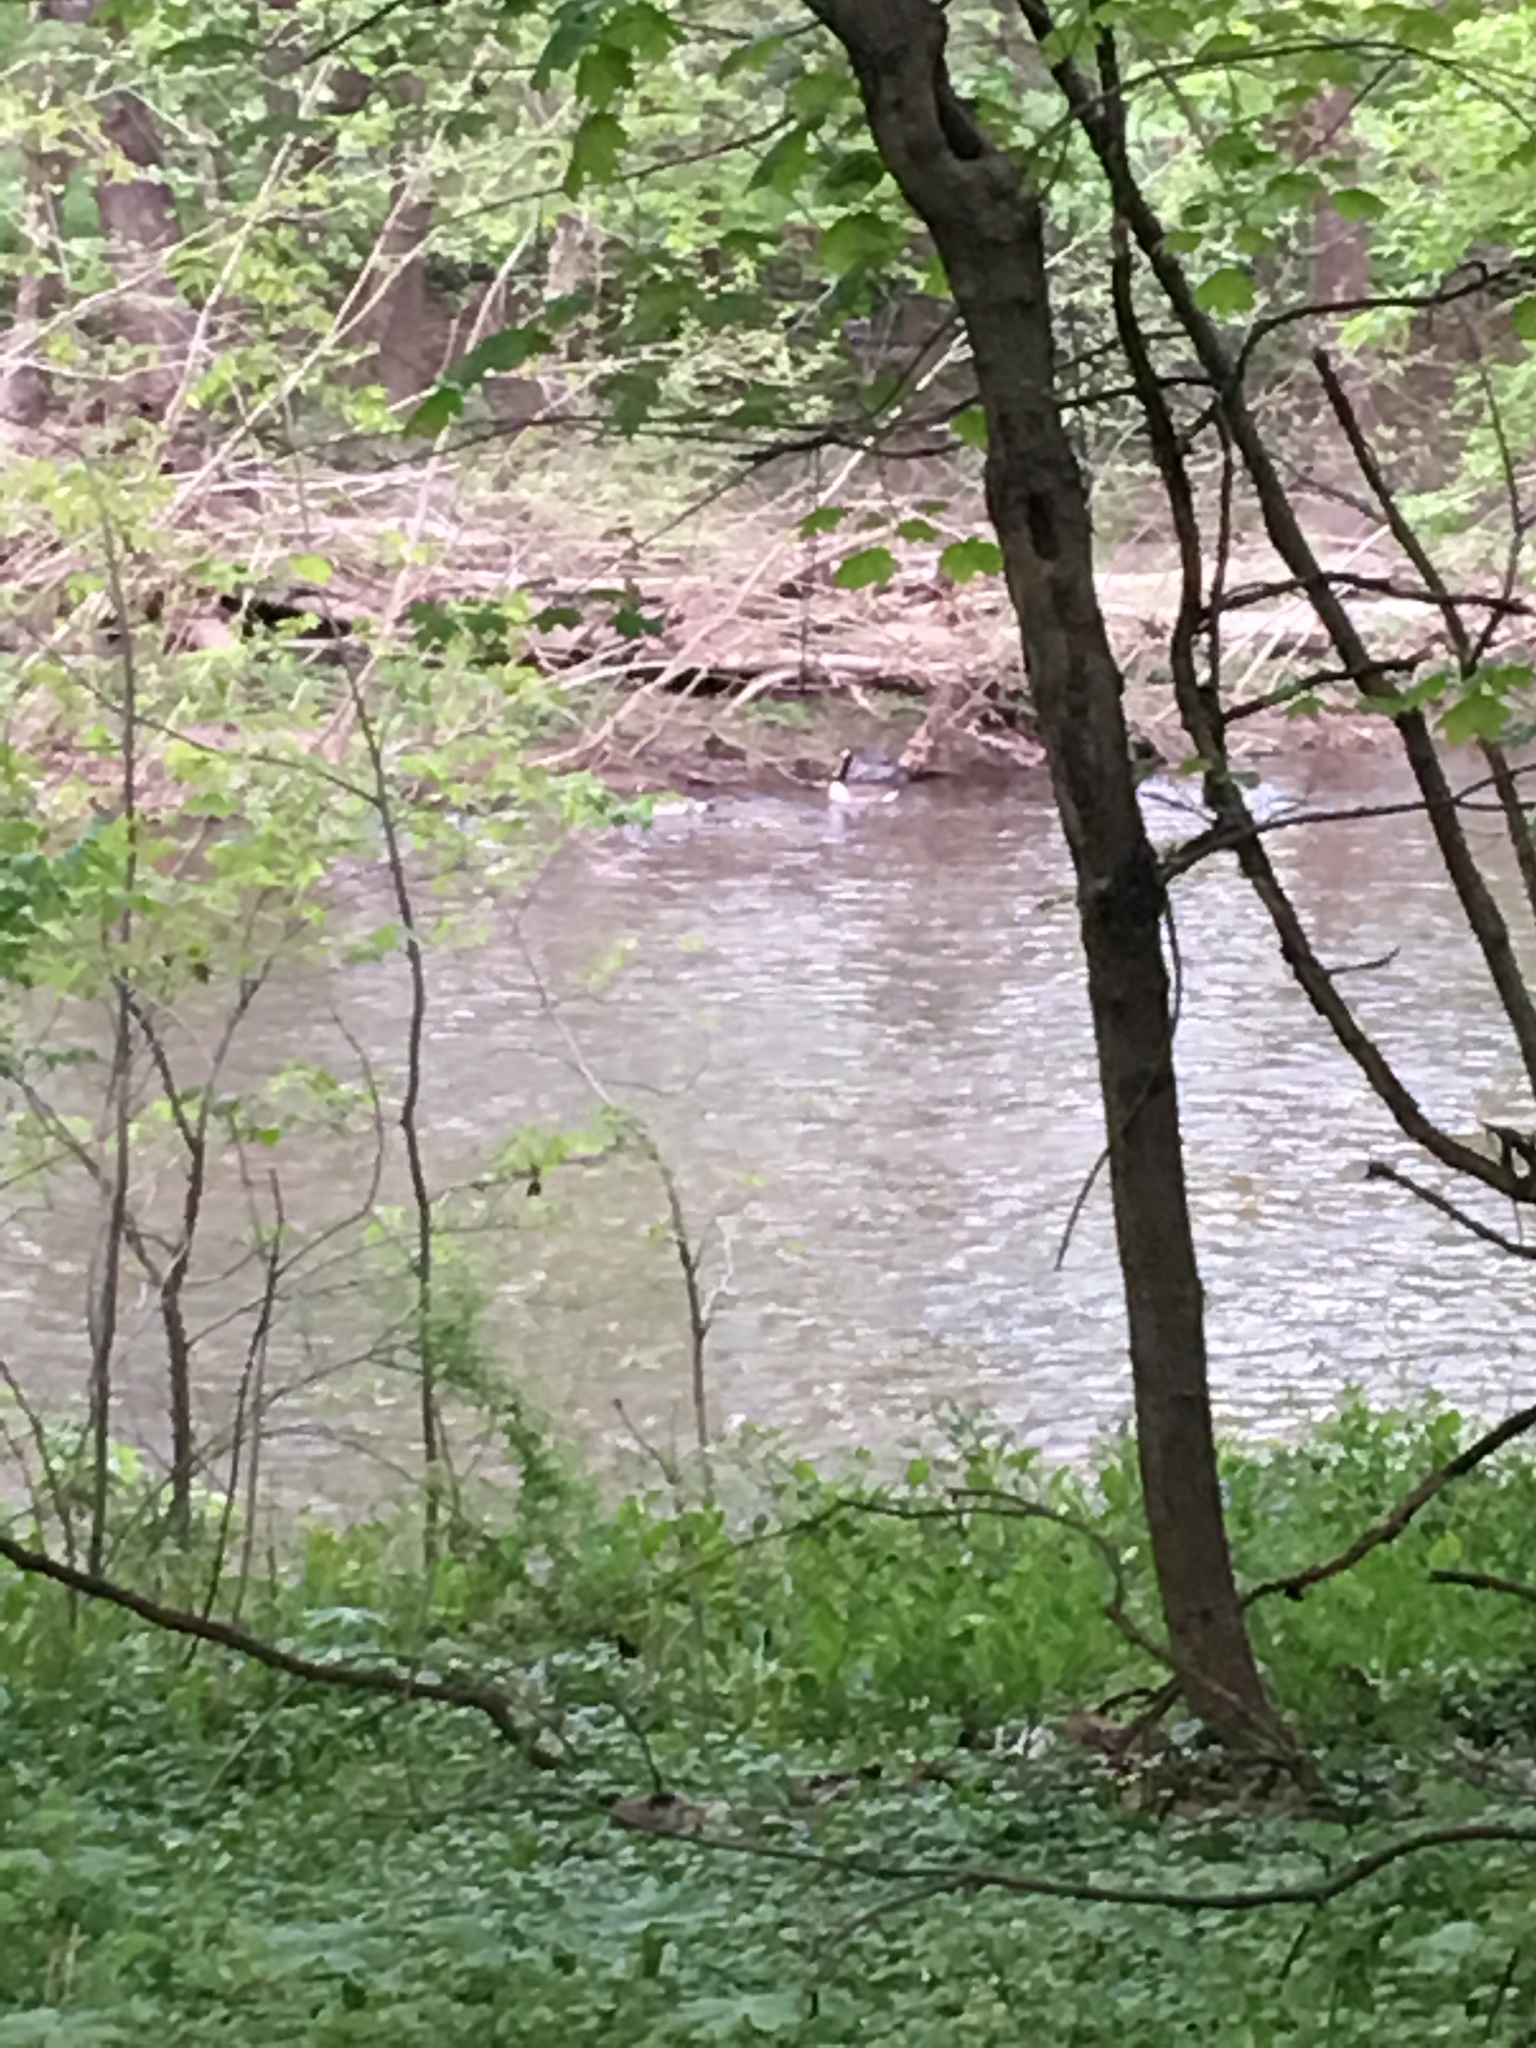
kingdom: Animalia
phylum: Chordata
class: Aves
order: Anseriformes
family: Anatidae
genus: Branta
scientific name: Branta canadensis
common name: Canada goose
